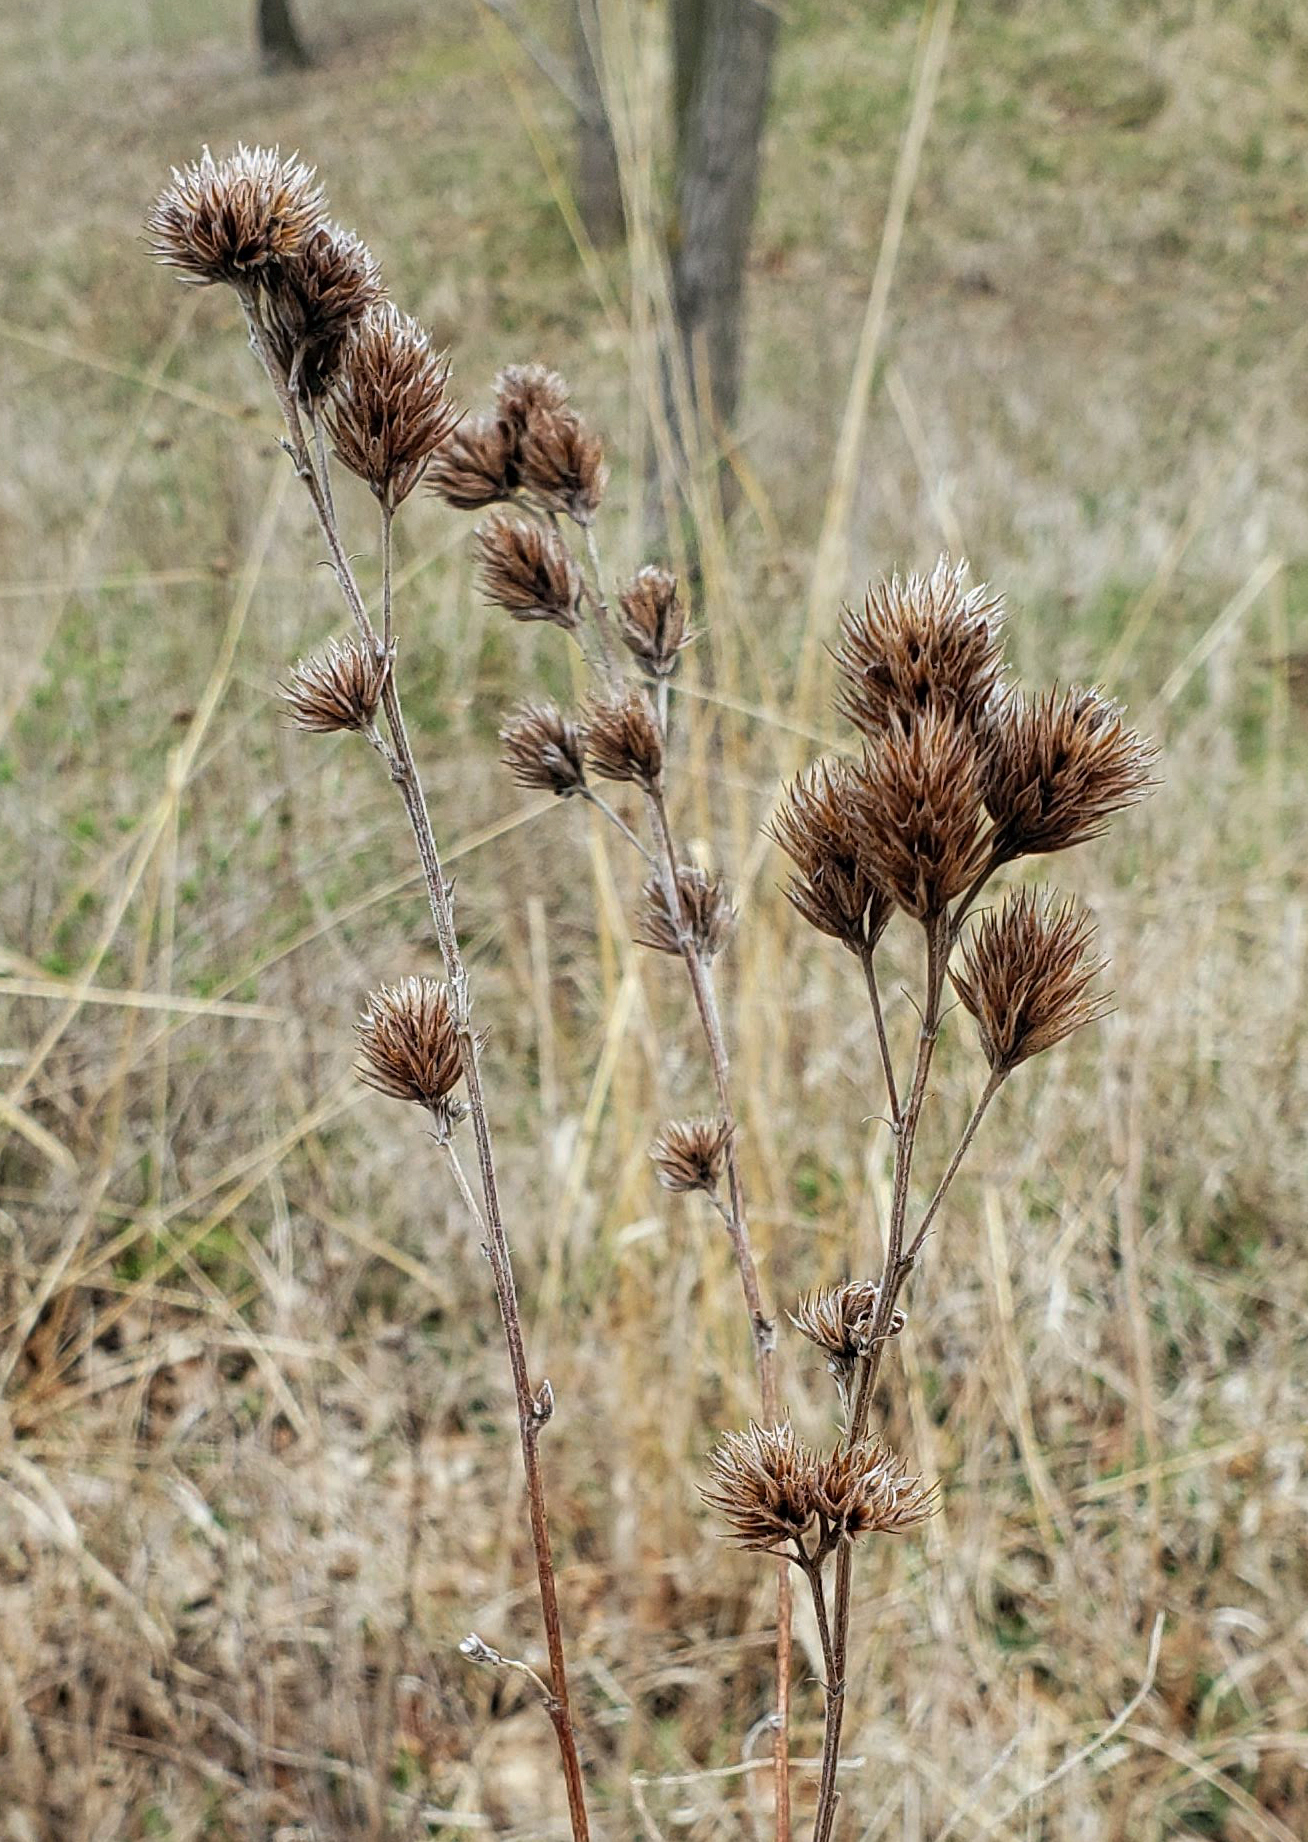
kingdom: Plantae
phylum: Tracheophyta
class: Magnoliopsida
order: Fabales
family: Fabaceae
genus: Lespedeza
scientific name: Lespedeza capitata
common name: Dusty clover
